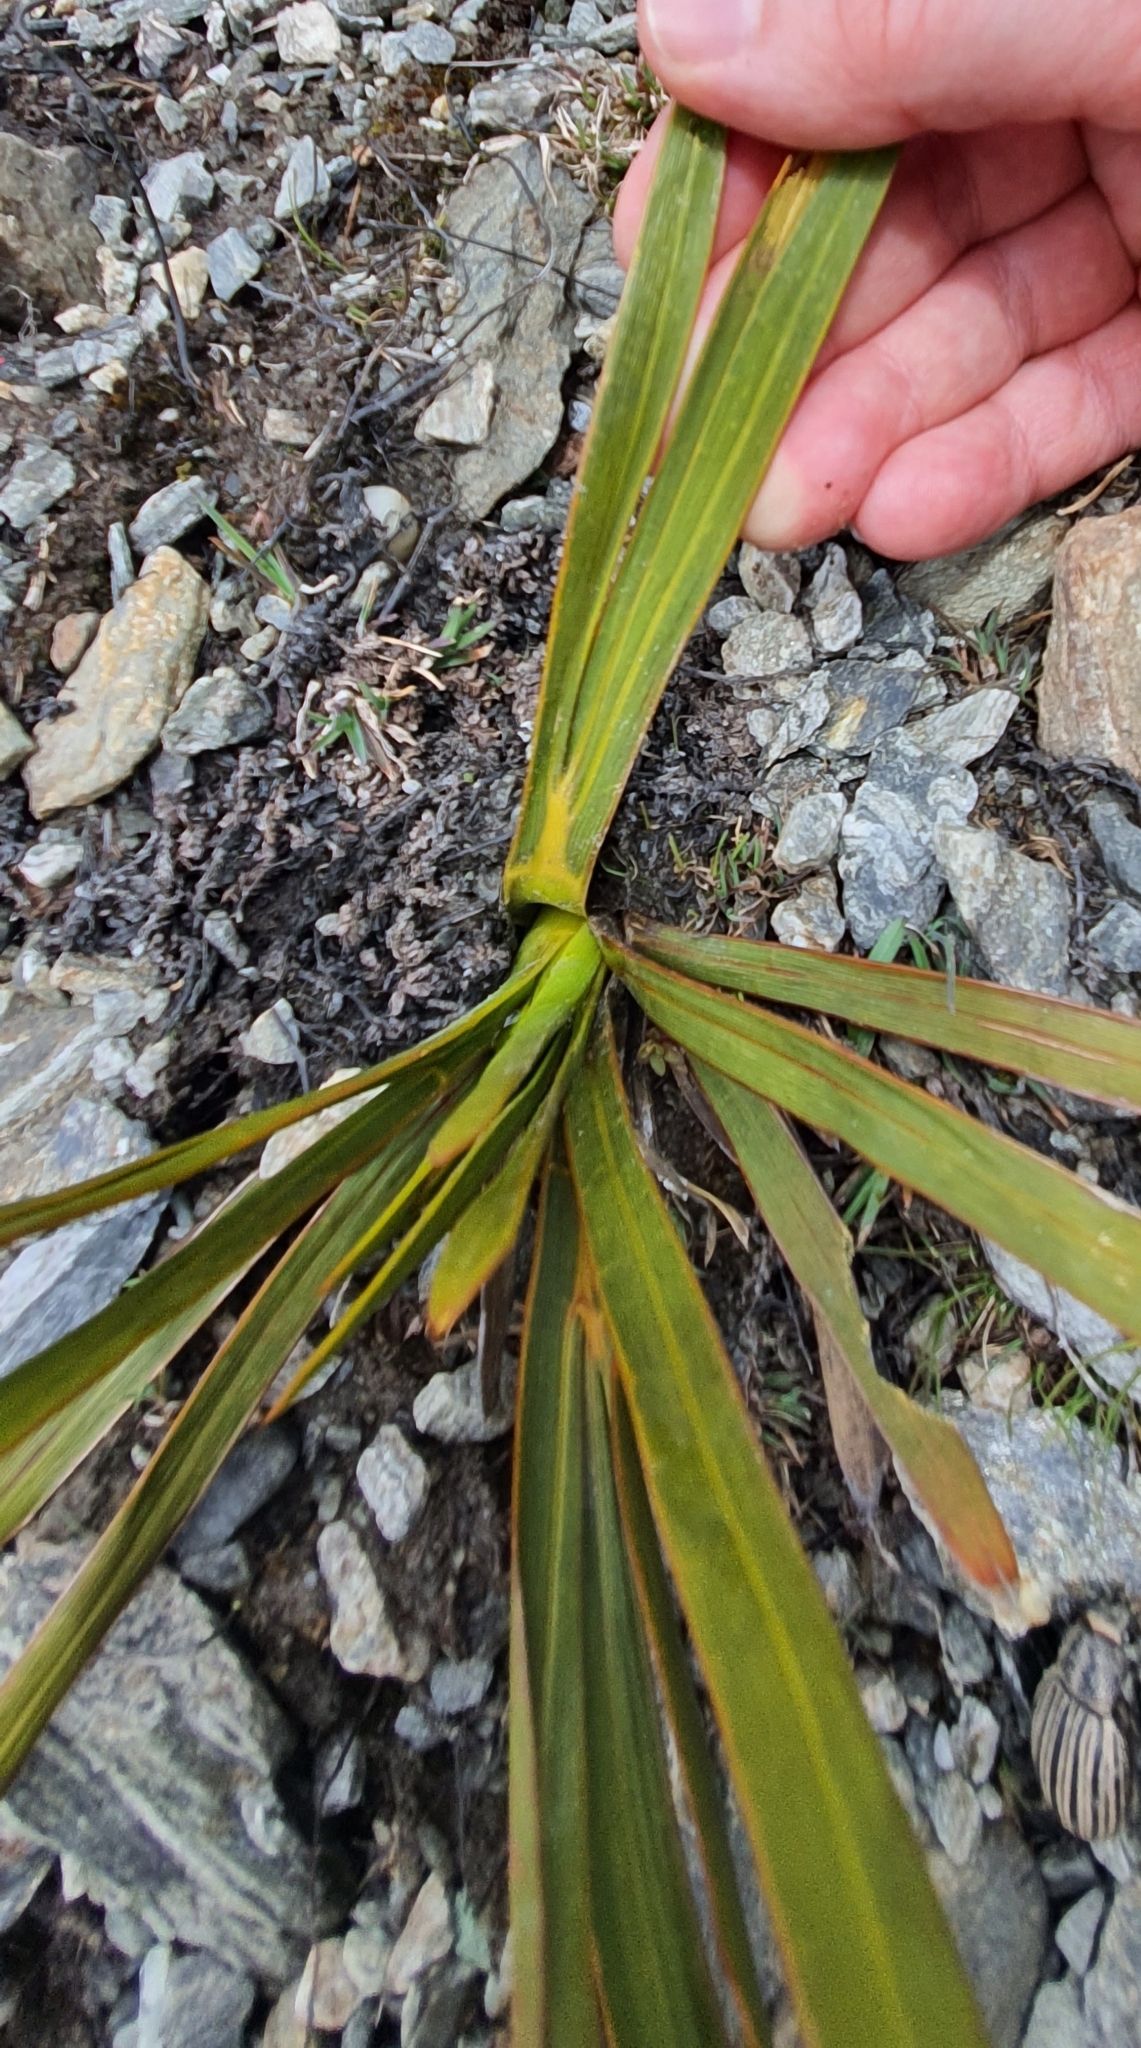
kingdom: Plantae
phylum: Tracheophyta
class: Magnoliopsida
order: Apiales
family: Apiaceae
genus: Aciphylla
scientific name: Aciphylla kirkii
